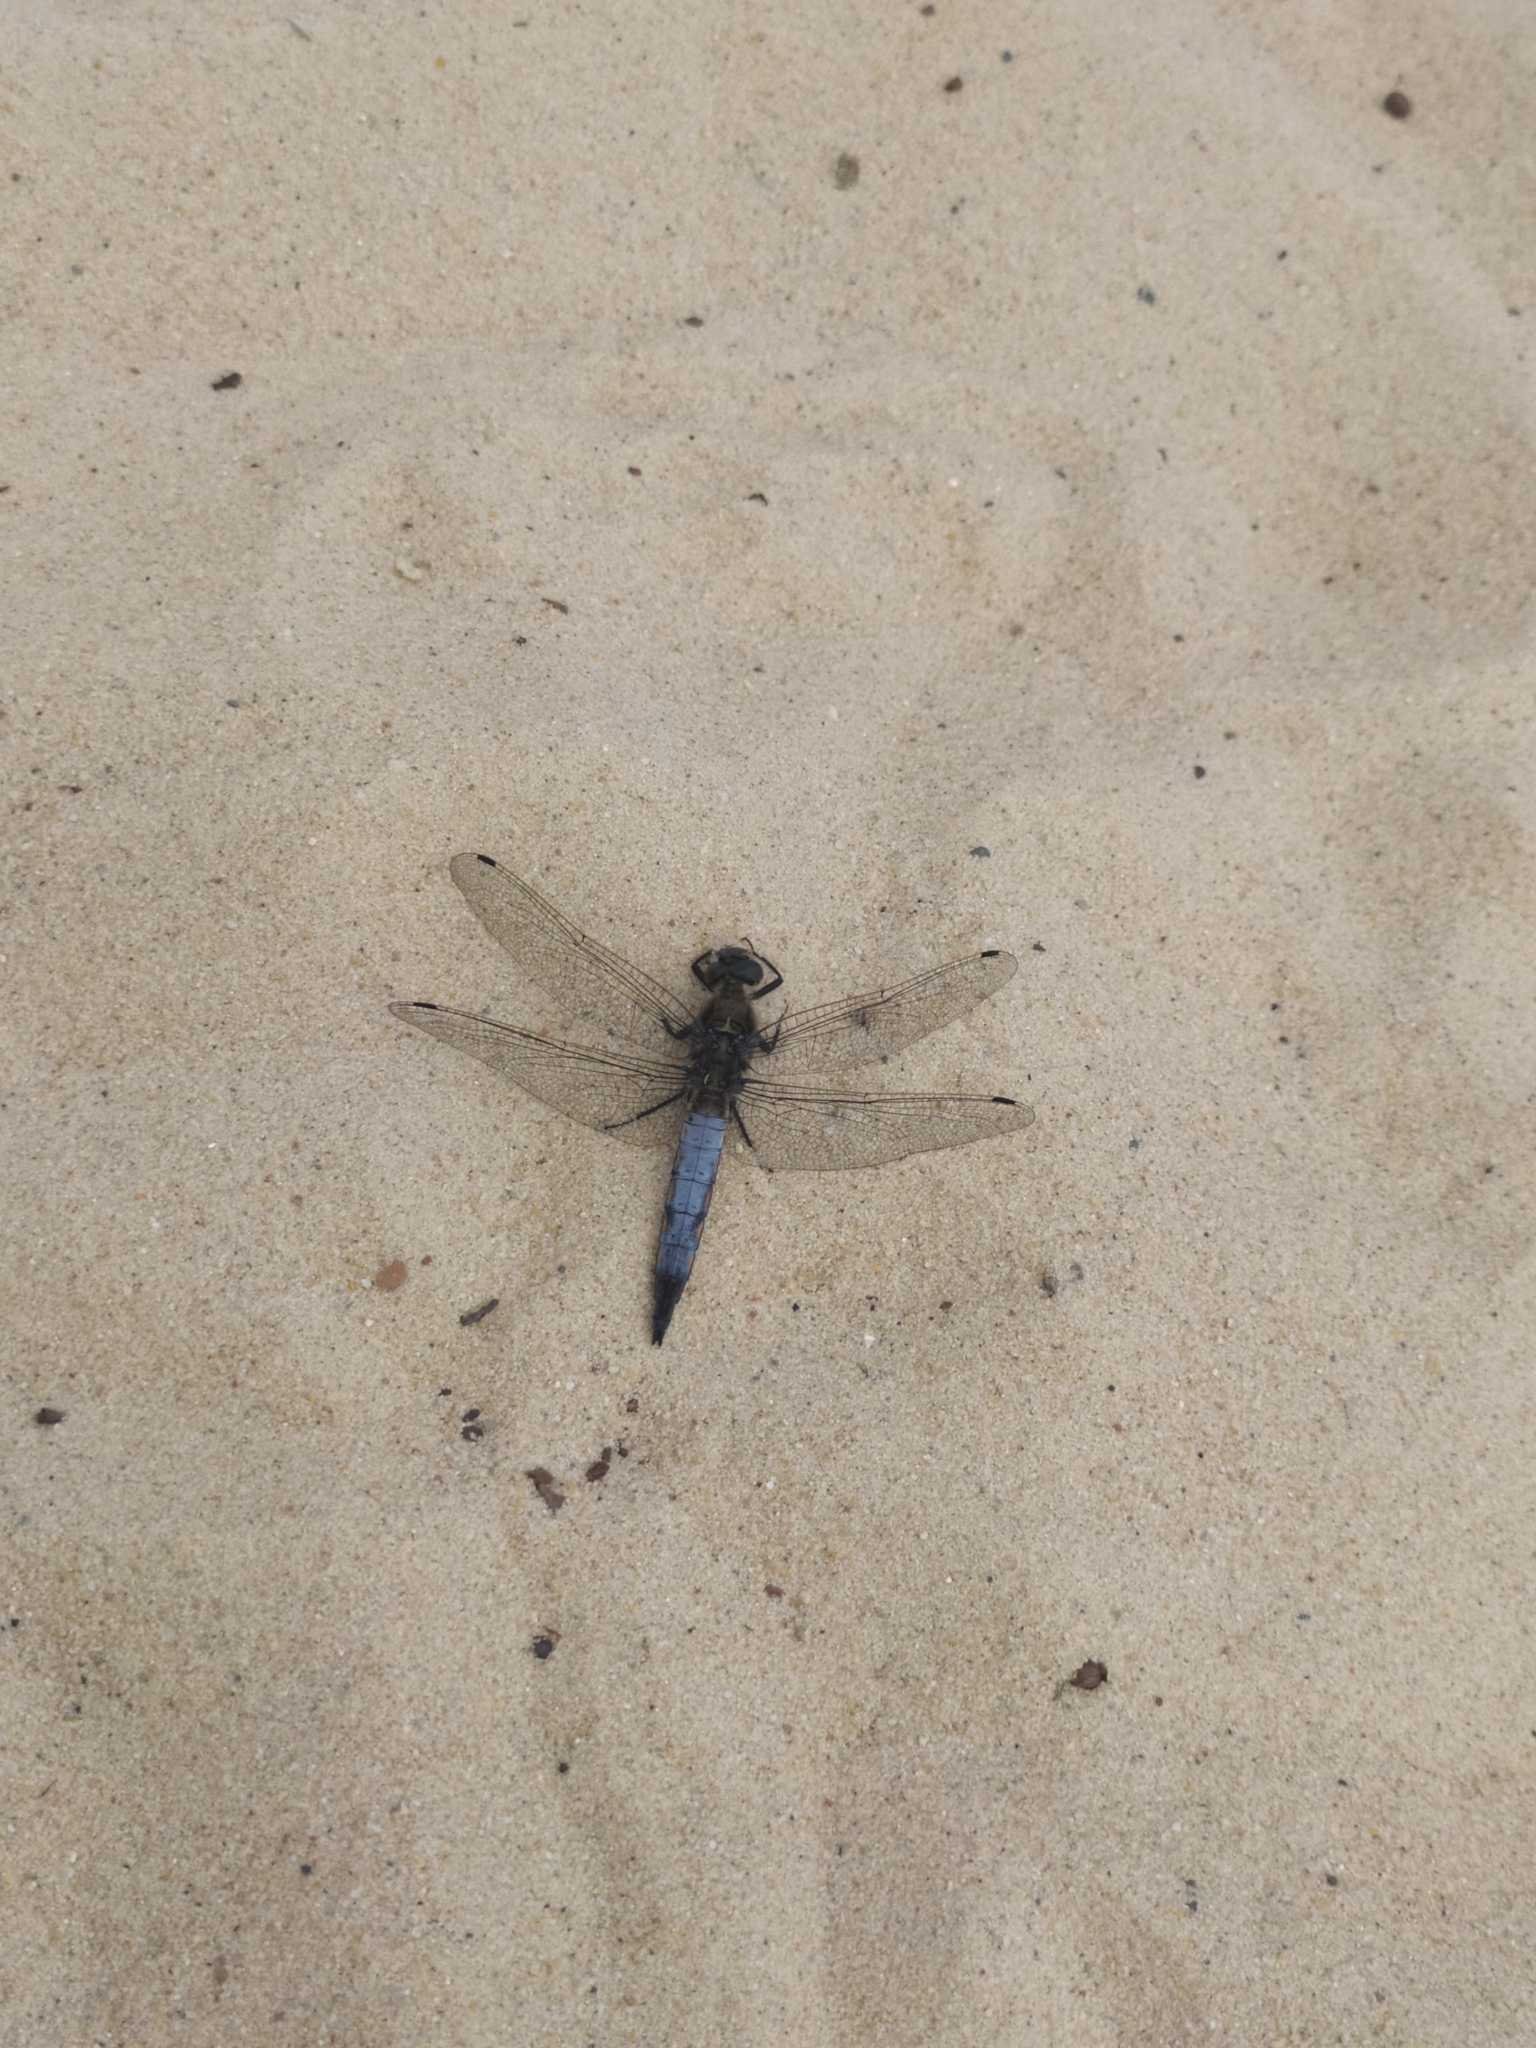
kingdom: Animalia
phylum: Arthropoda
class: Insecta
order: Odonata
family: Libellulidae
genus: Orthetrum
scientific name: Orthetrum cancellatum
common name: Black-tailed skimmer
